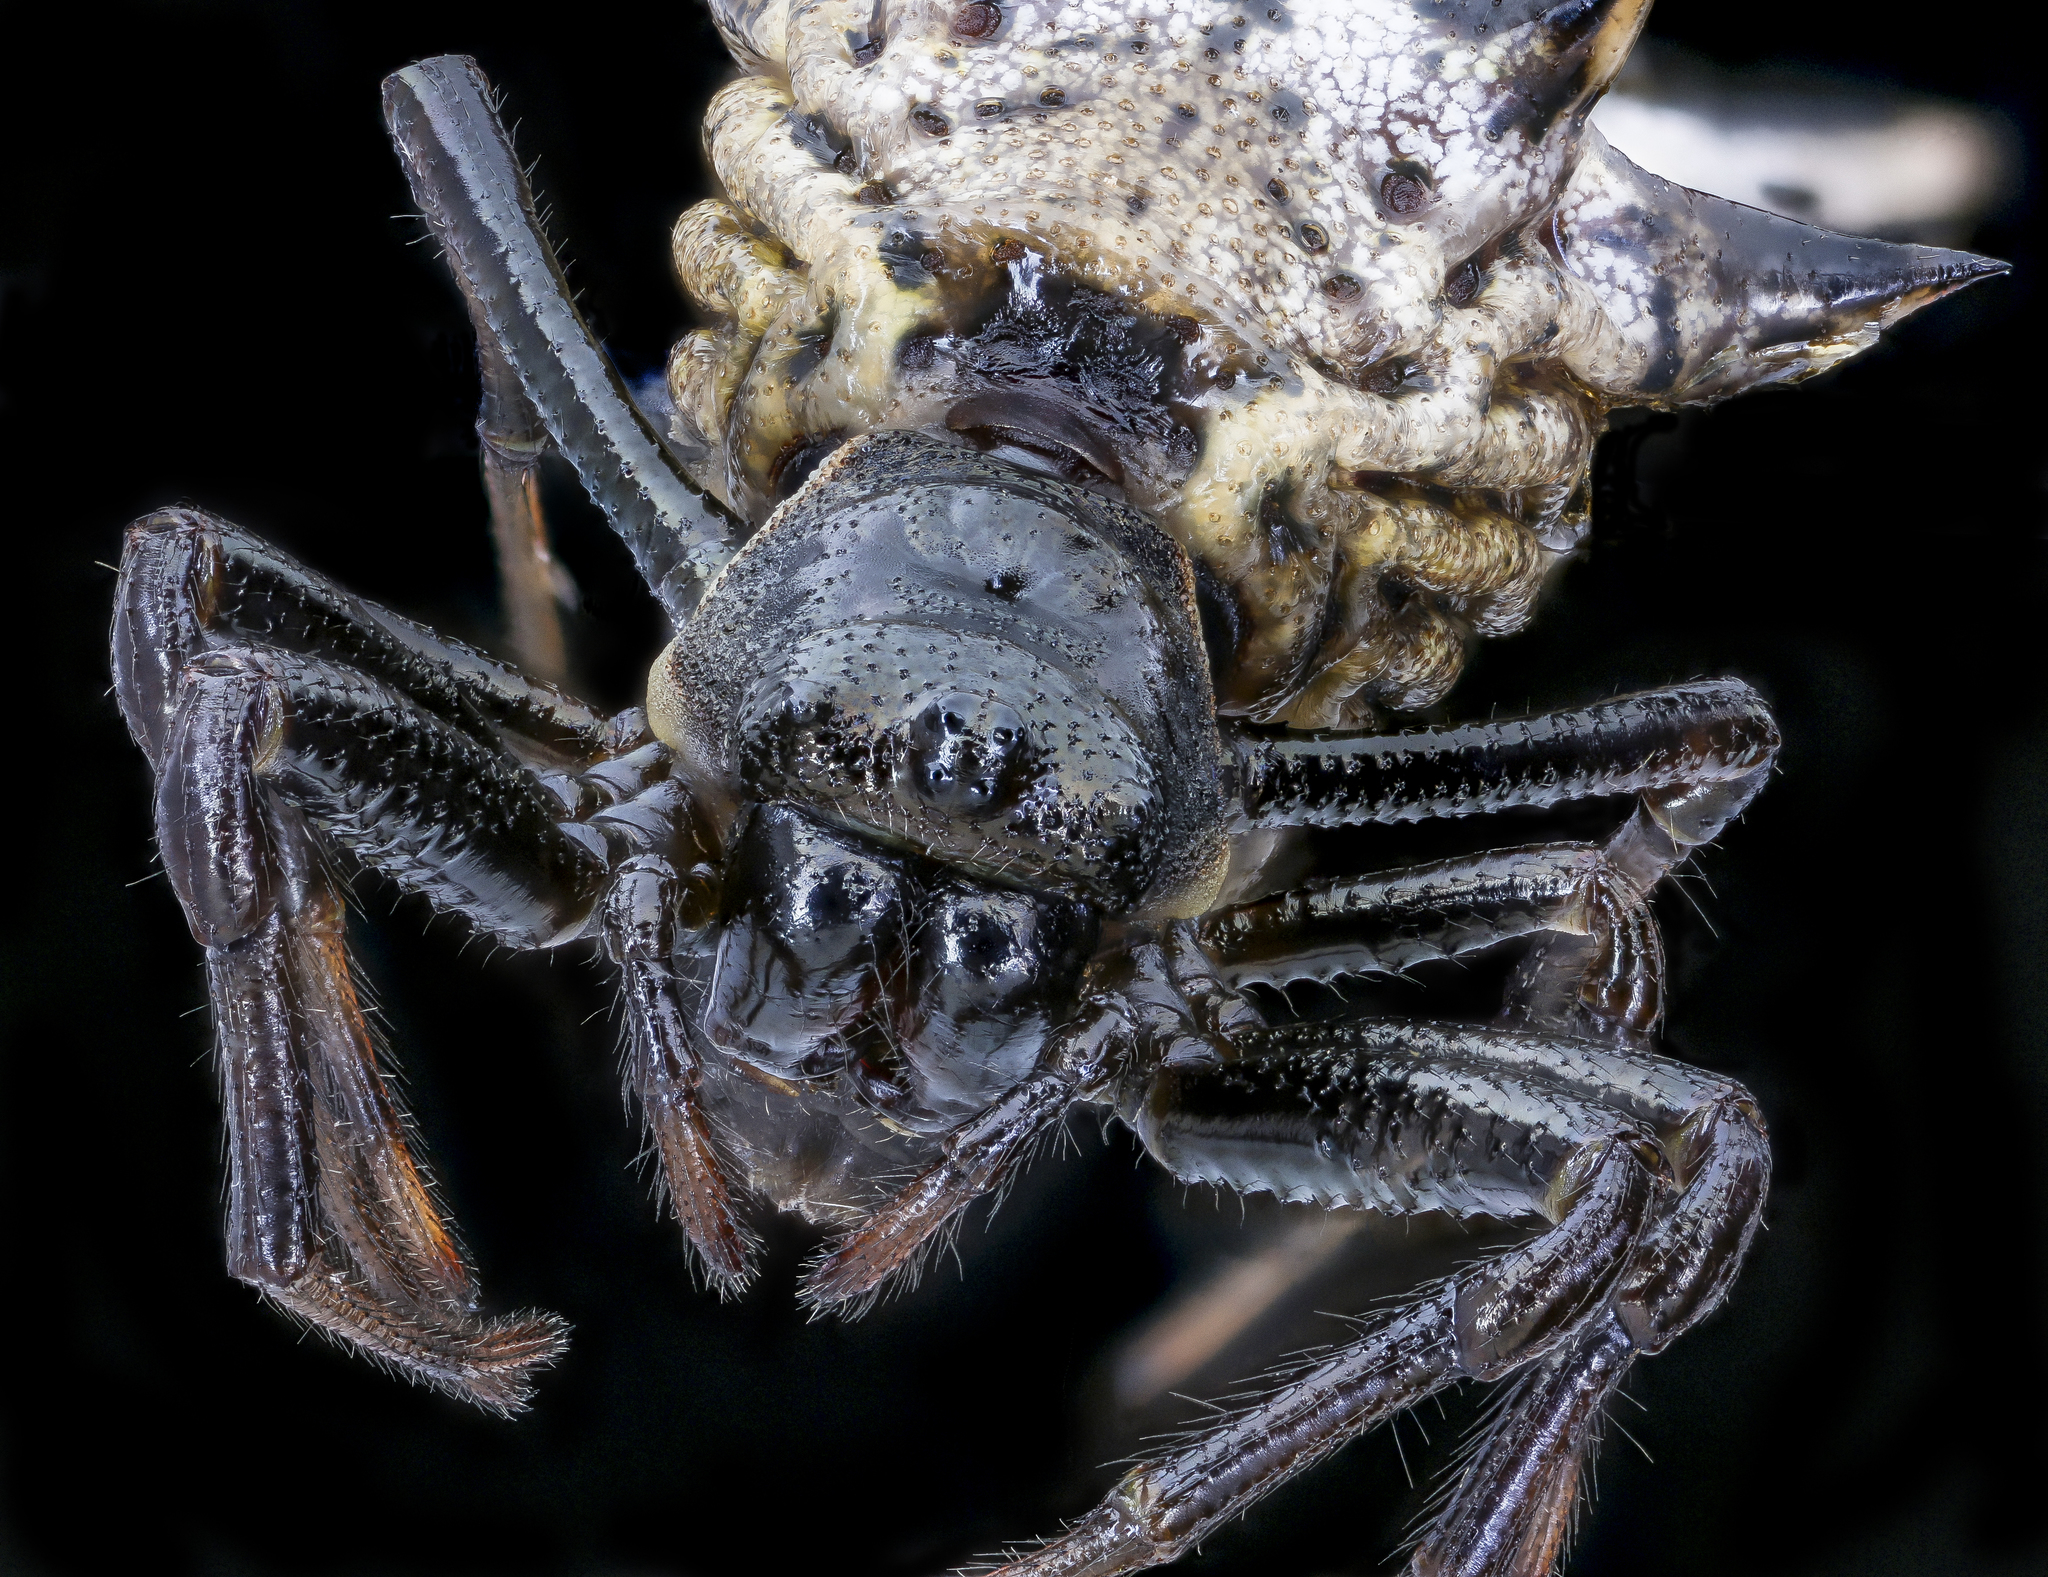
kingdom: Animalia
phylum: Arthropoda
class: Arachnida
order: Araneae
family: Araneidae
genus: Micrathena
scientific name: Micrathena gracilis
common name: Orb weavers
